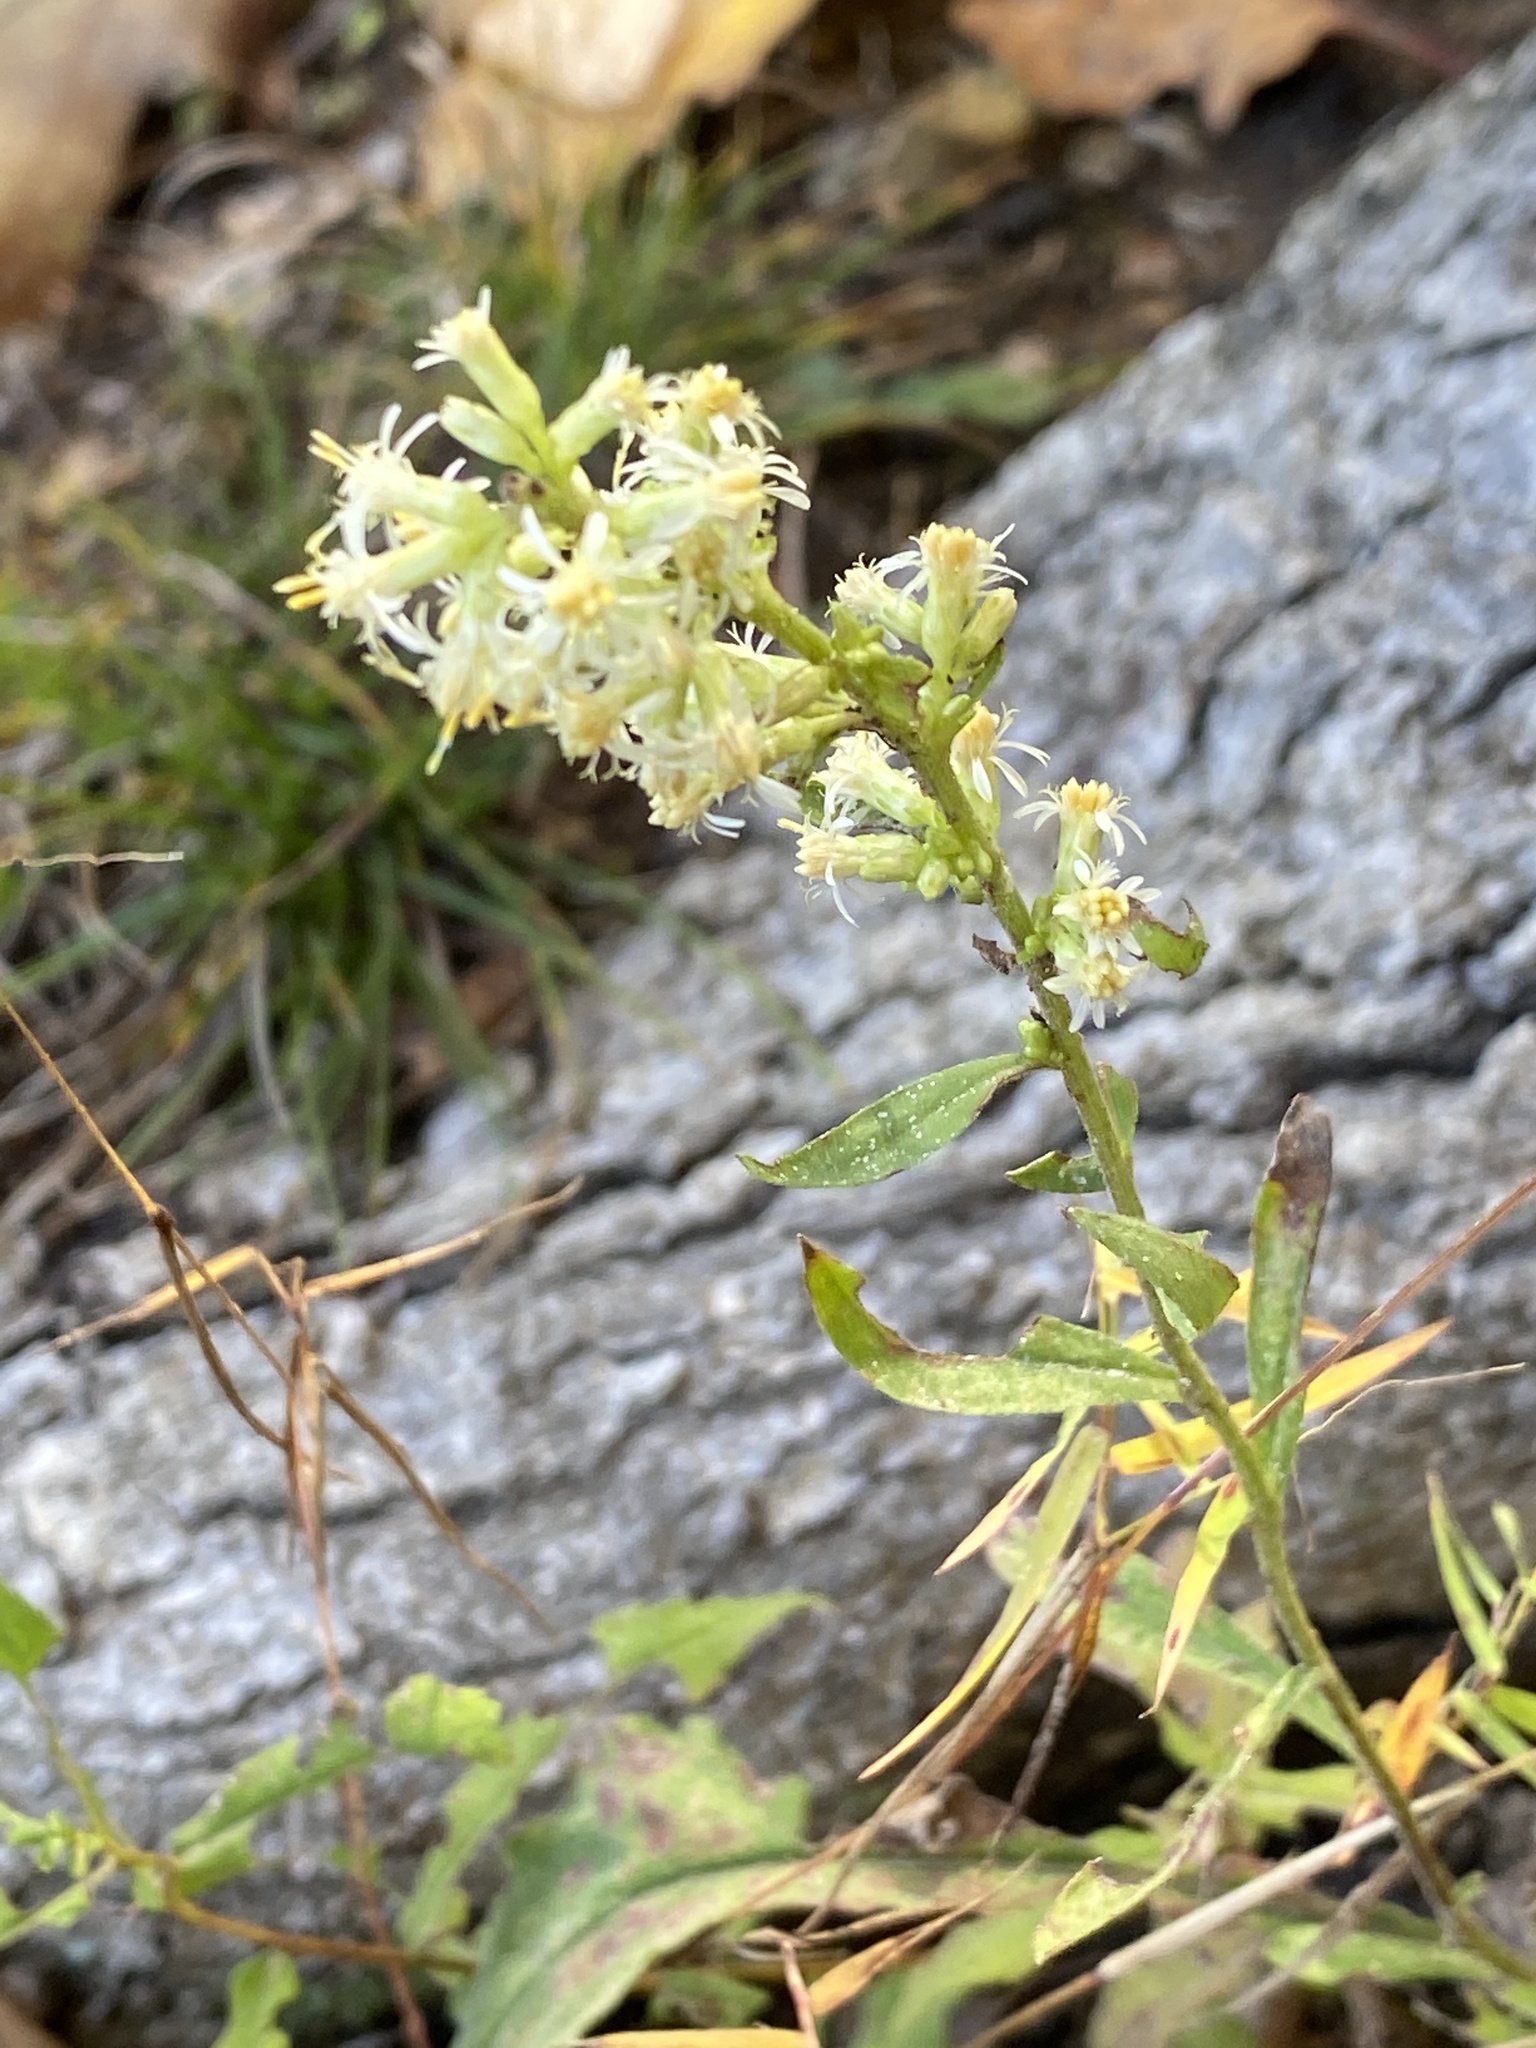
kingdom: Plantae
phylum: Tracheophyta
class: Magnoliopsida
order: Asterales
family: Asteraceae
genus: Solidago
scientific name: Solidago bicolor
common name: Silverrod
